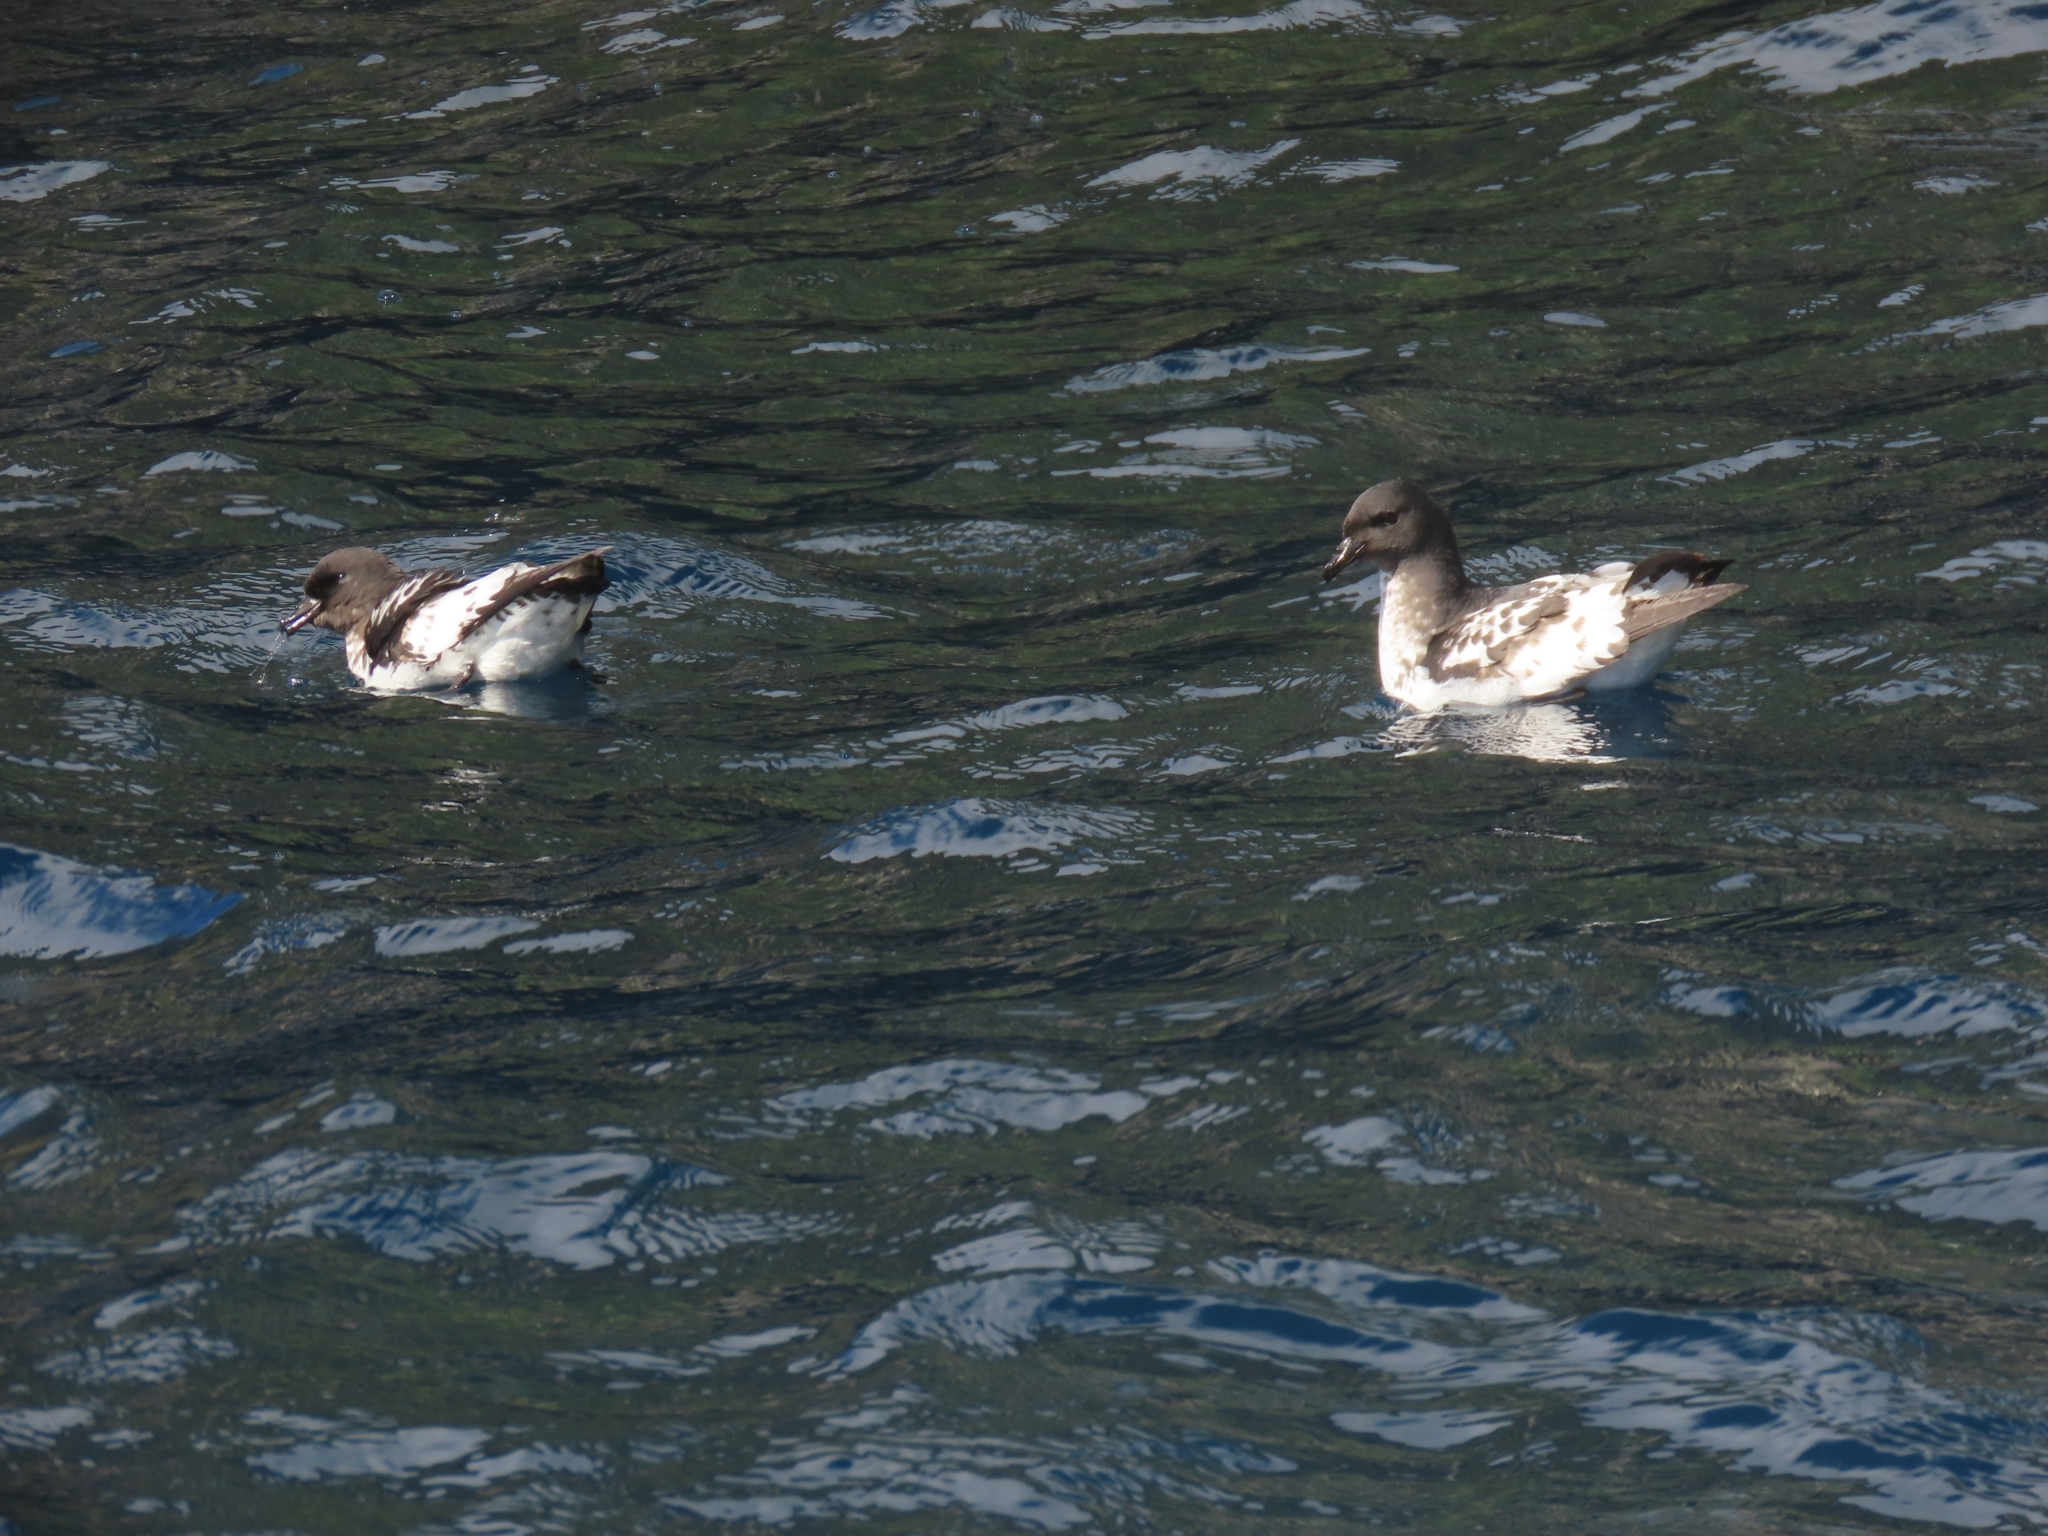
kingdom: Animalia
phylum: Chordata
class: Aves
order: Procellariiformes
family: Procellariidae
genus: Daption
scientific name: Daption capense
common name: Cape petrel
